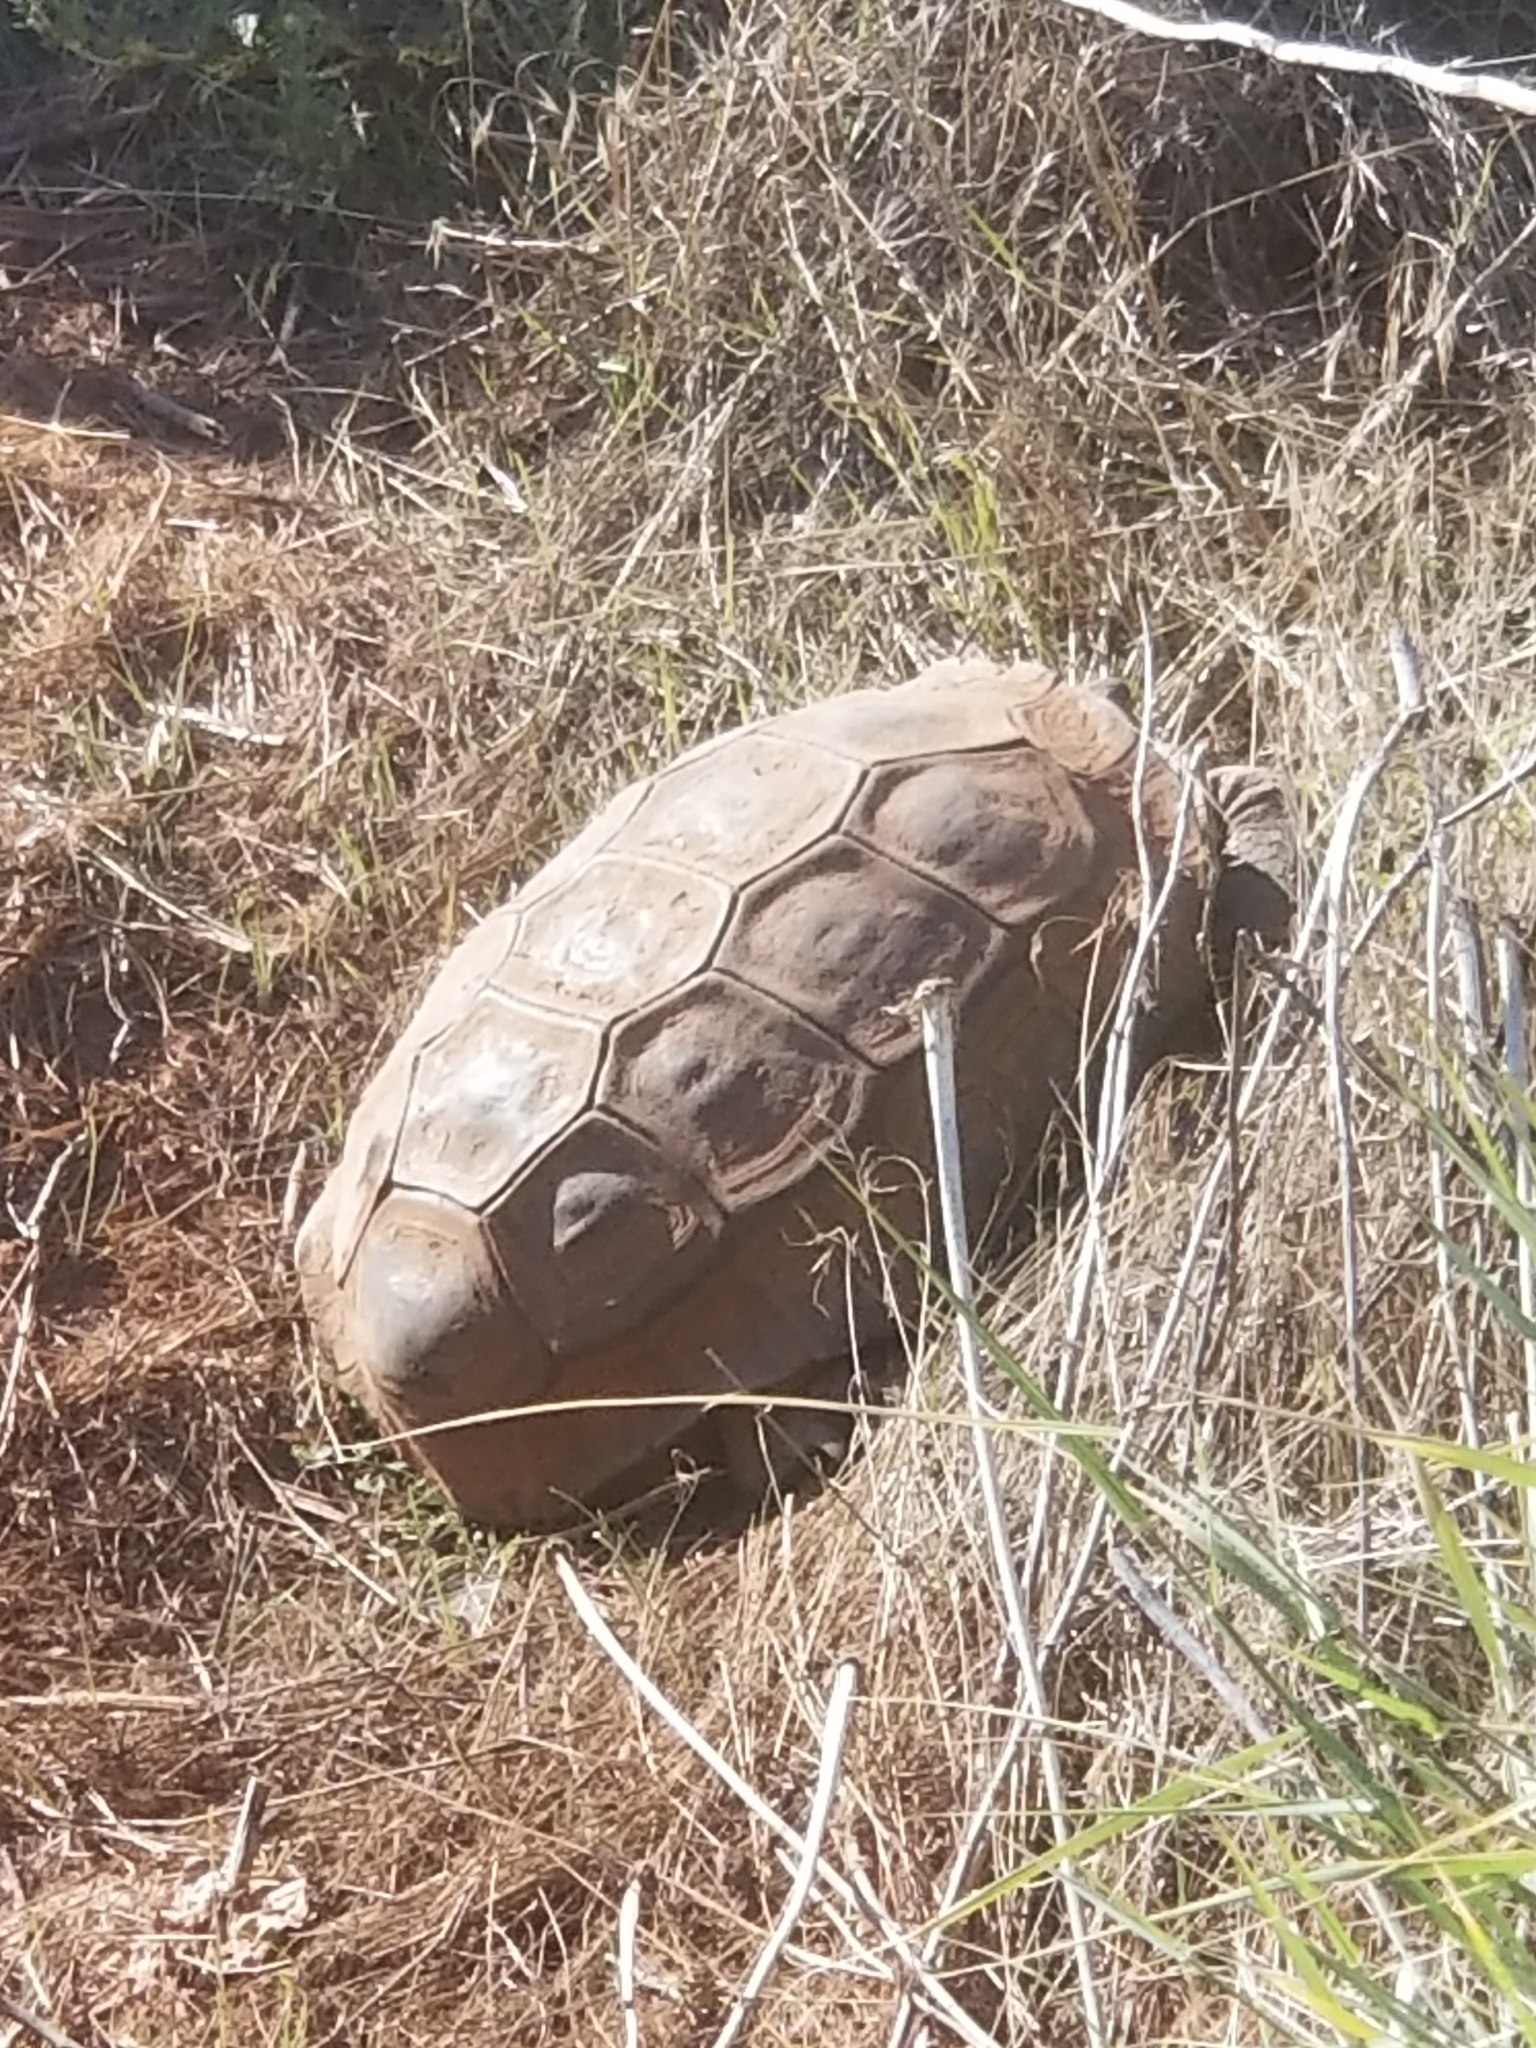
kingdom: Animalia
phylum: Chordata
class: Testudines
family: Testudinidae
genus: Gopherus
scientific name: Gopherus agassizii
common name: Mojave desert tortoise
